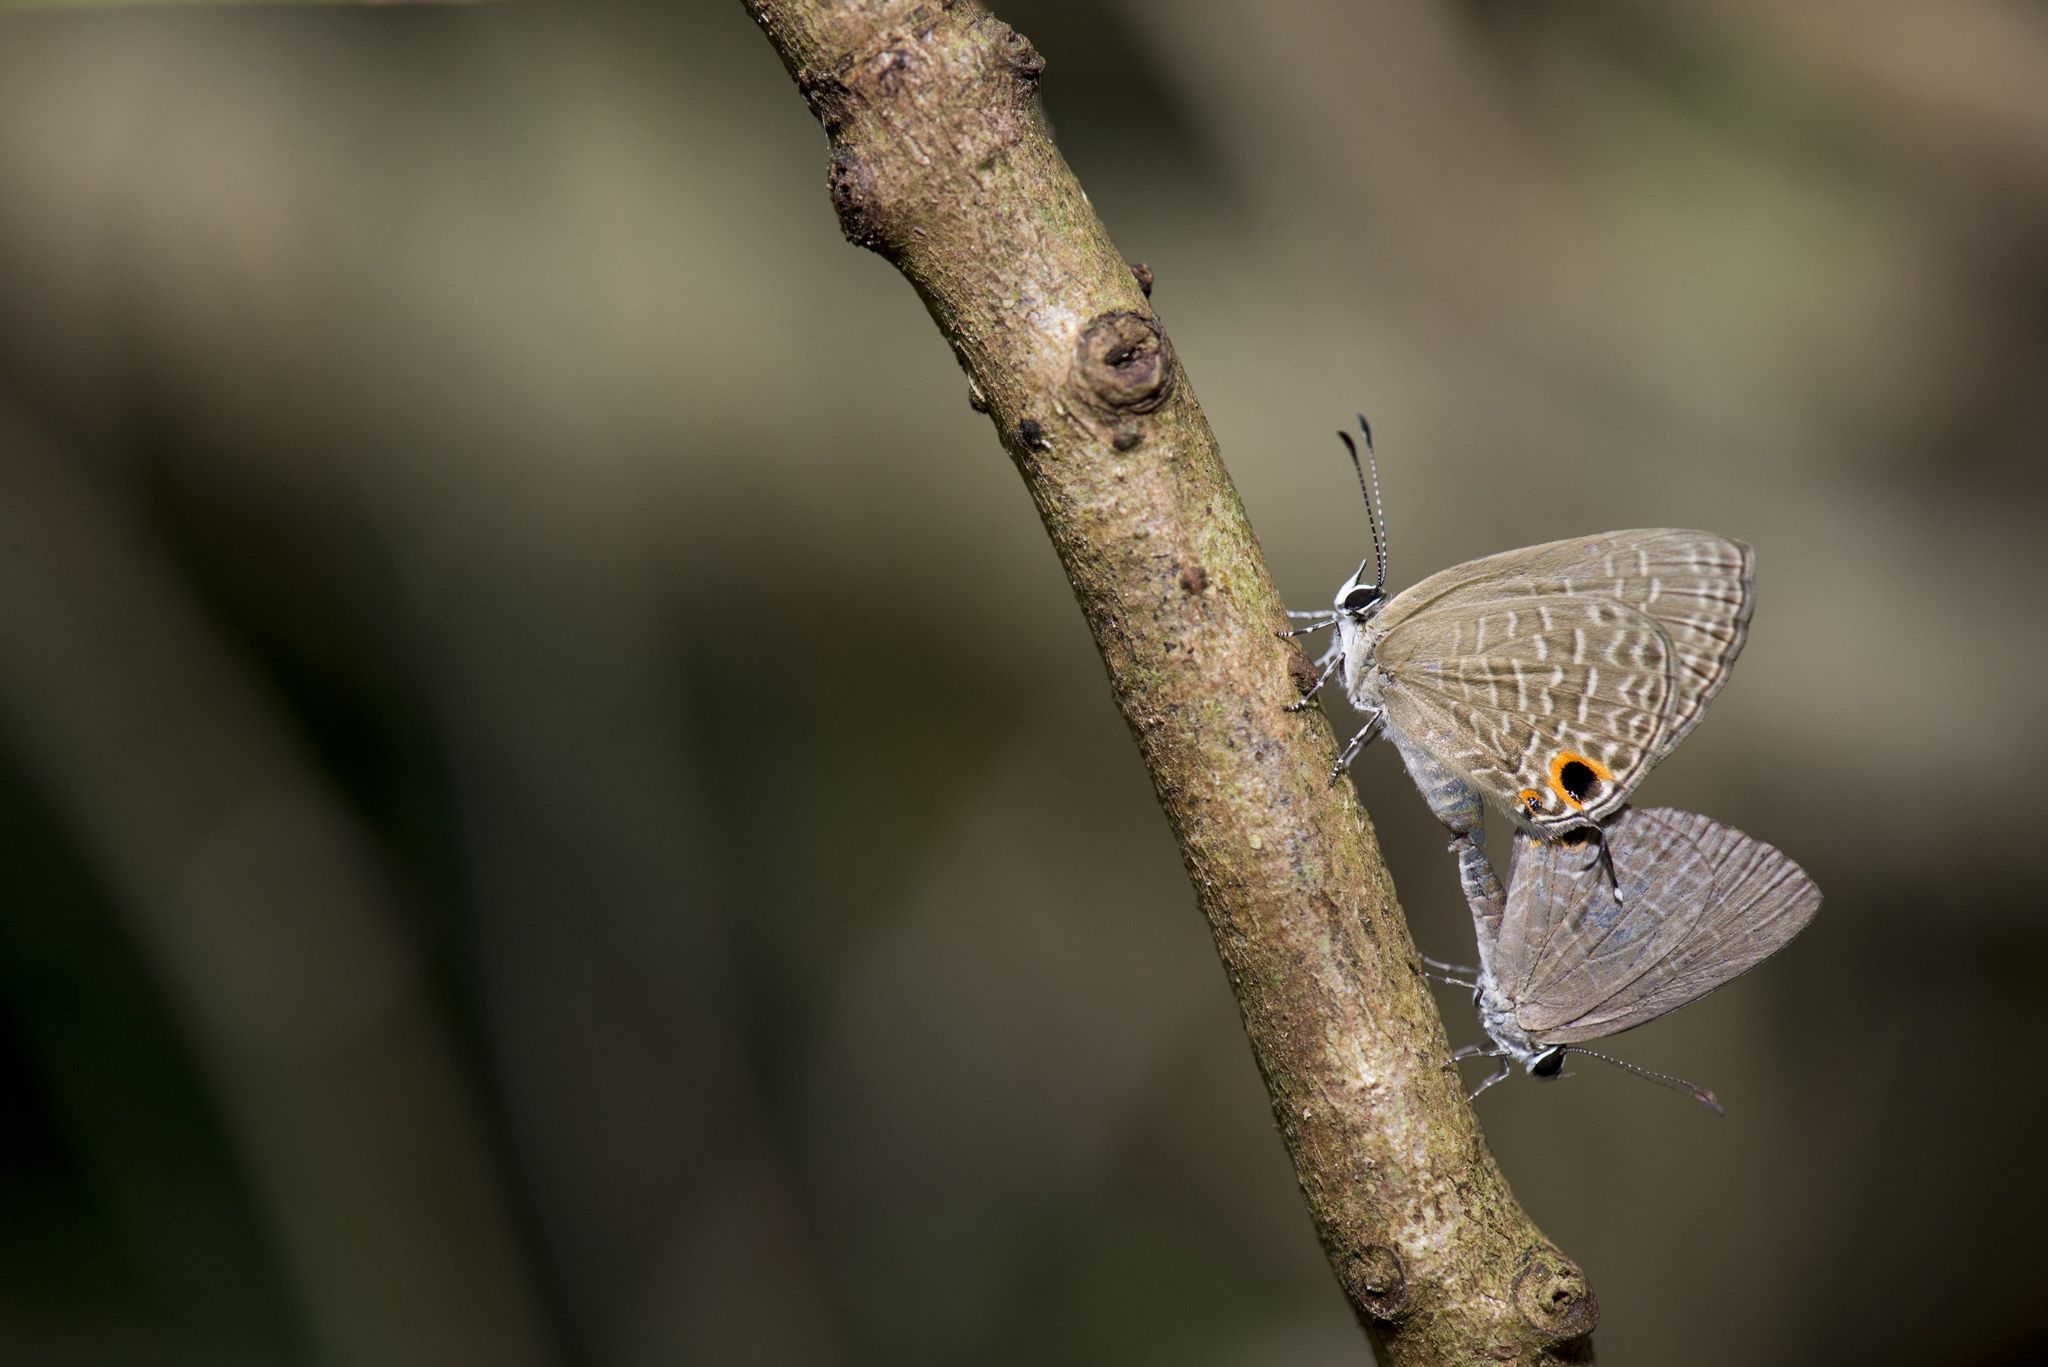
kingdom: Animalia
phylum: Arthropoda
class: Insecta
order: Lepidoptera
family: Lycaenidae
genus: Jamides
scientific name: Jamides bochus
